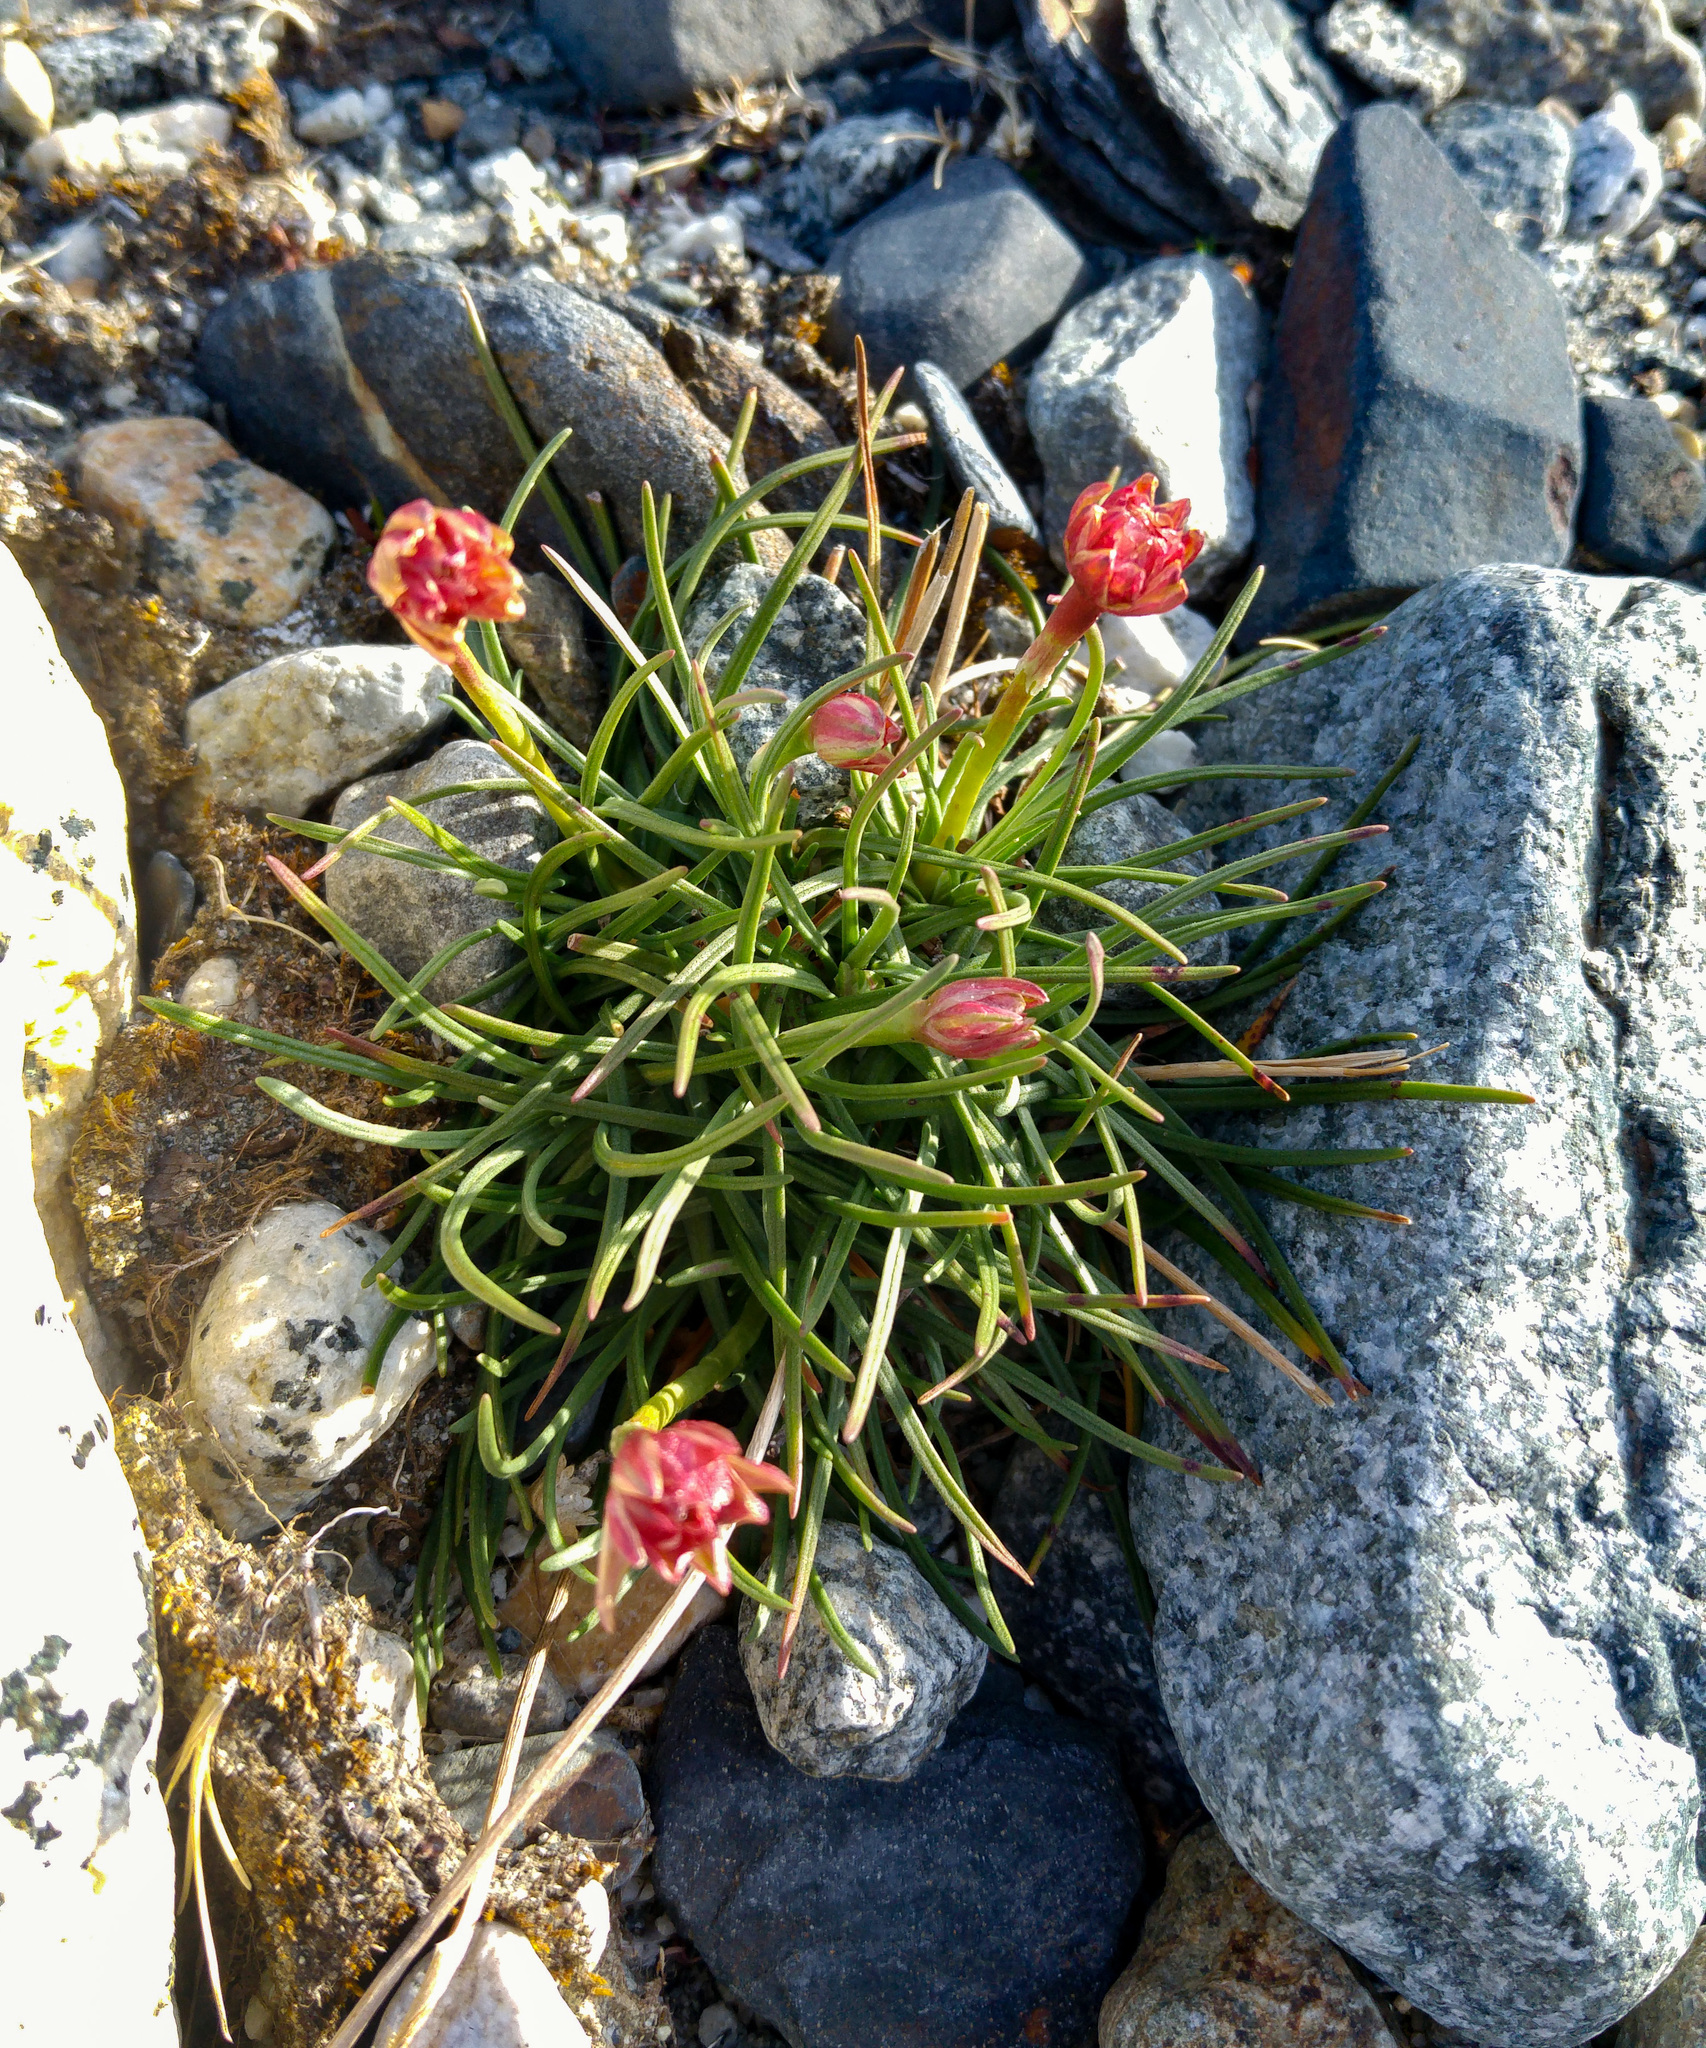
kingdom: Plantae
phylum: Tracheophyta
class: Magnoliopsida
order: Caryophyllales
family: Plumbaginaceae
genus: Armeria
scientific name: Armeria curvifolia
